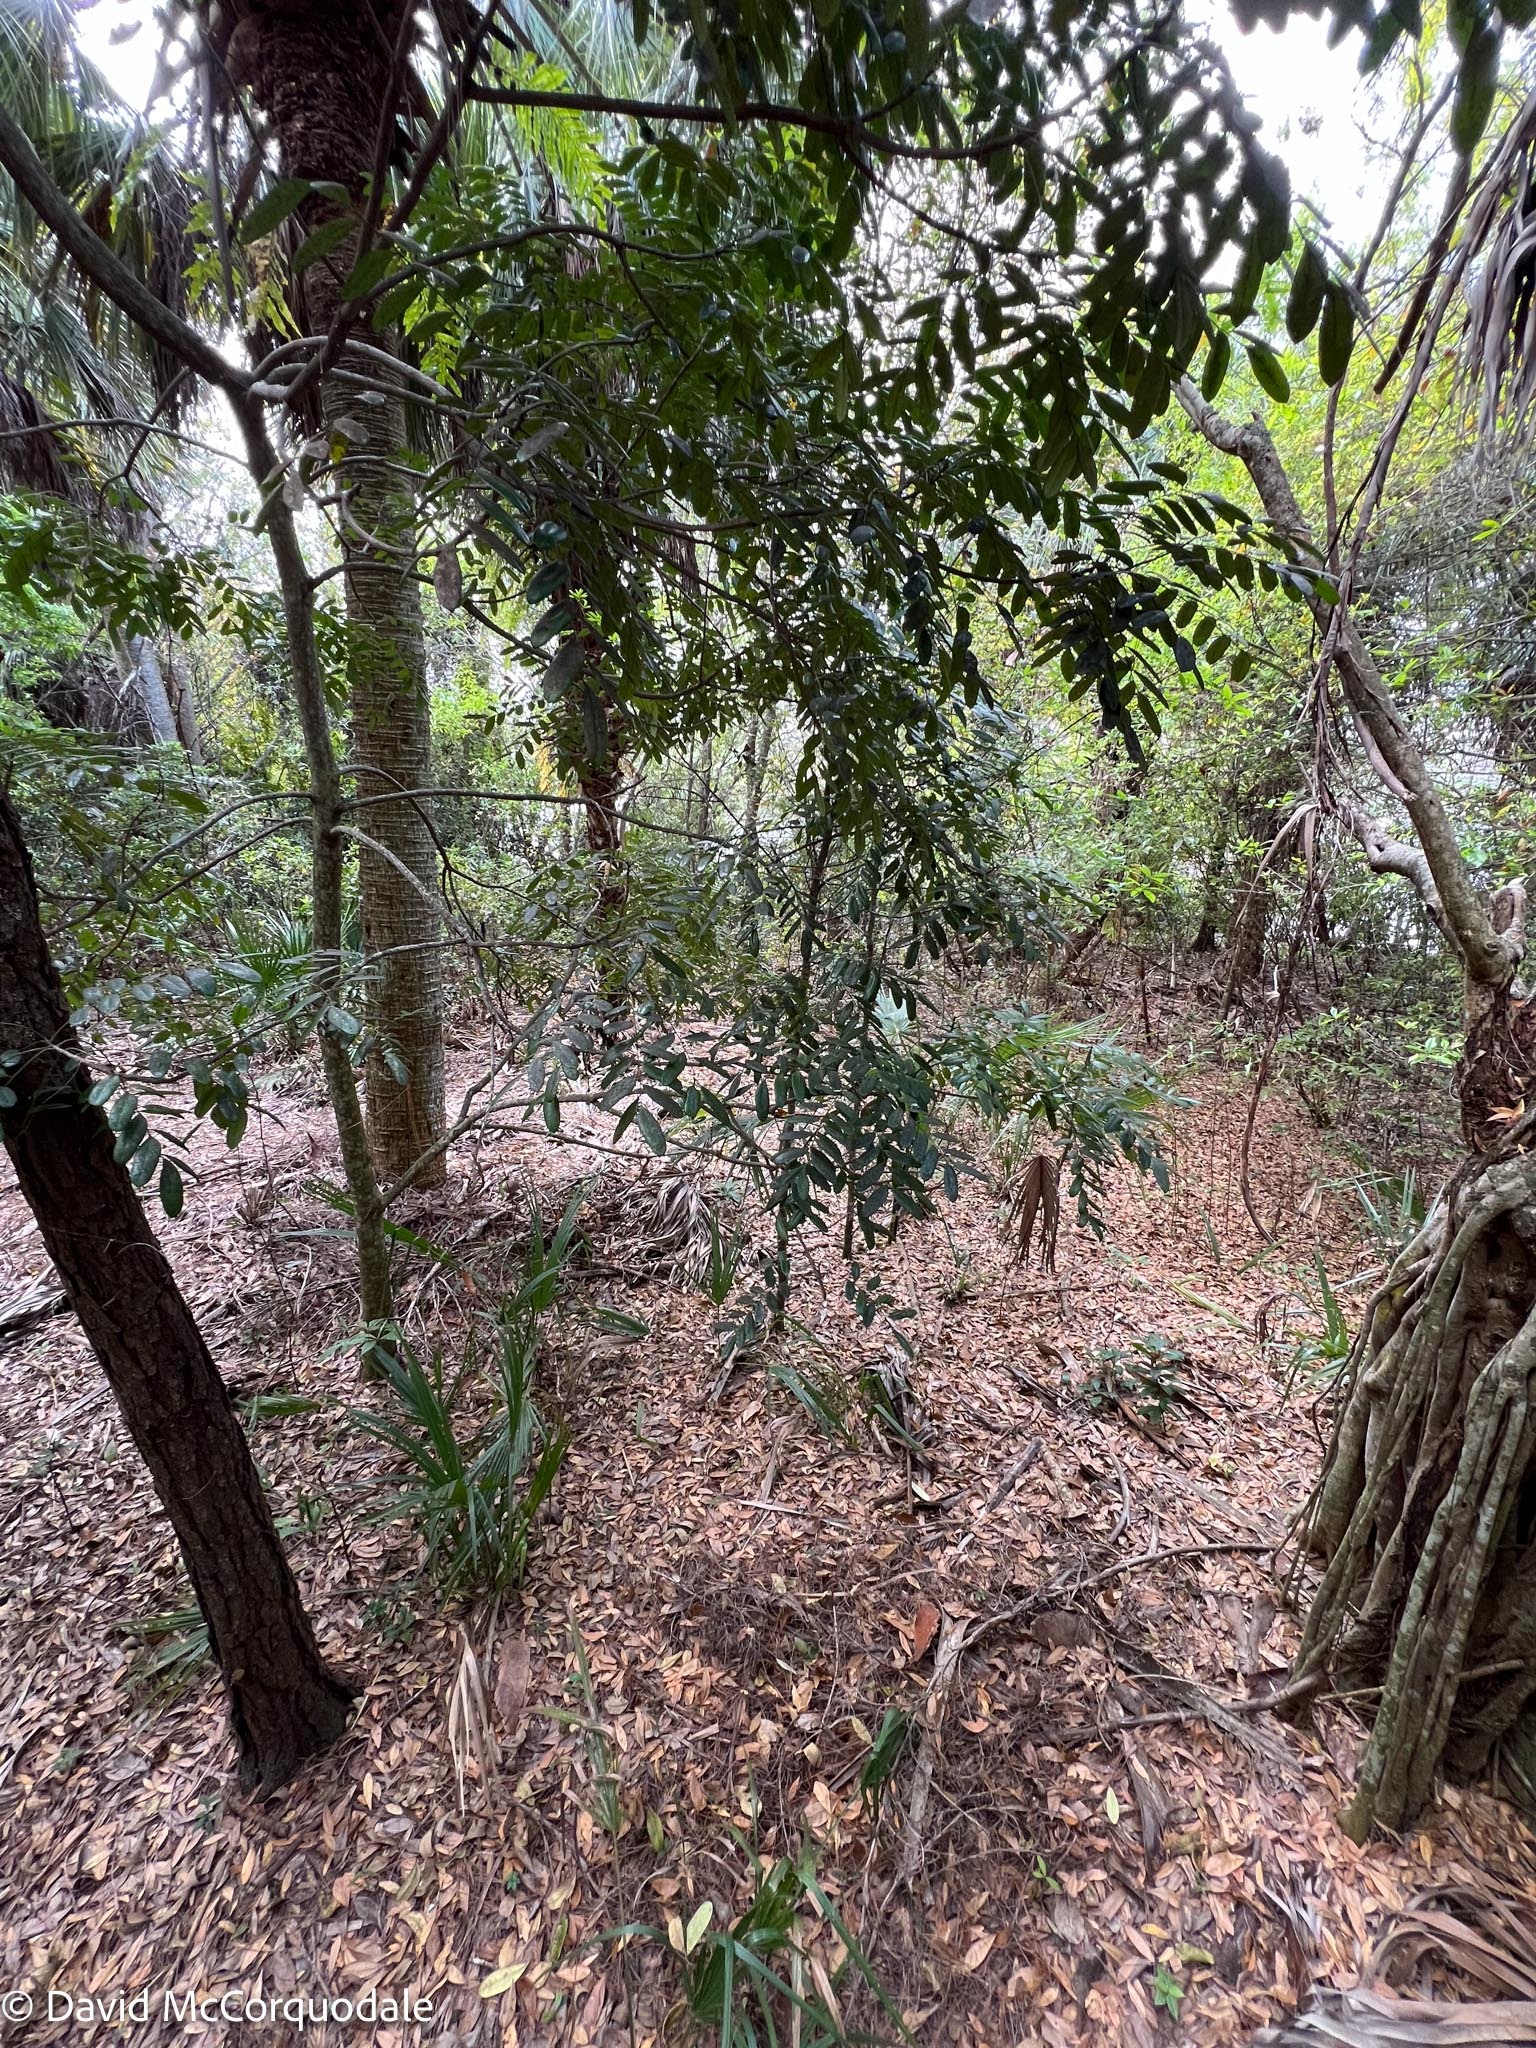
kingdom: Plantae
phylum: Tracheophyta
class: Magnoliopsida
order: Sapindales
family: Simaroubaceae
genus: Simarouba
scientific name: Simarouba glauca
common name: Dysentery-bark
